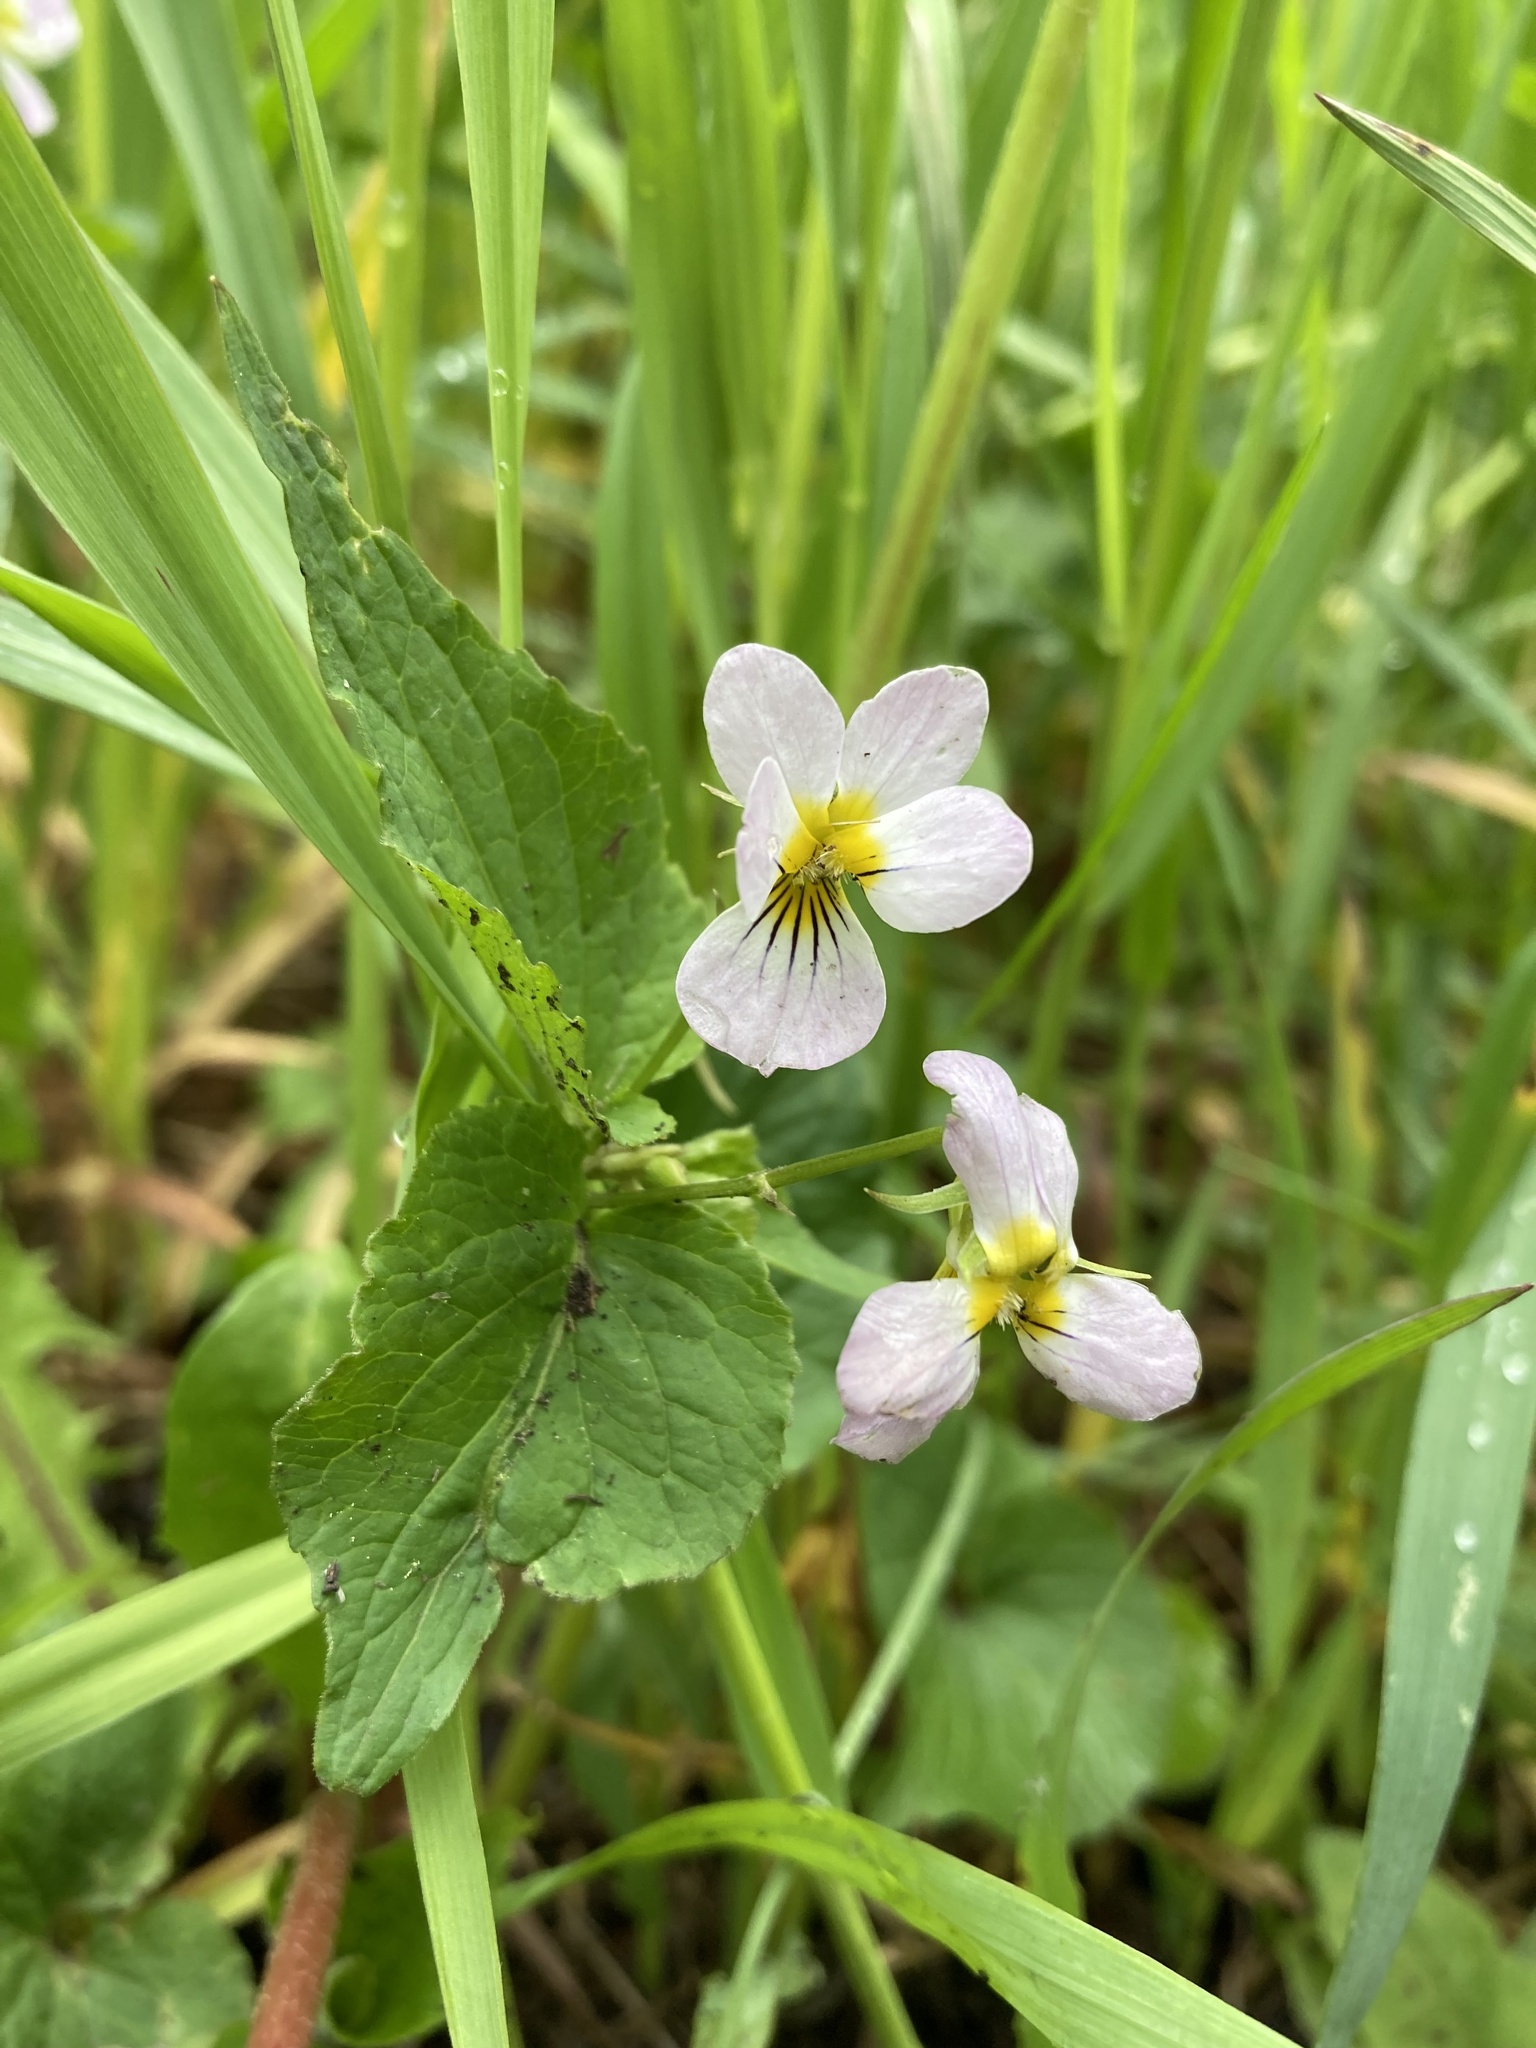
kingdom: Plantae
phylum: Tracheophyta
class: Magnoliopsida
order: Malpighiales
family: Violaceae
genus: Viola
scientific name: Viola canadensis
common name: Canada violet
